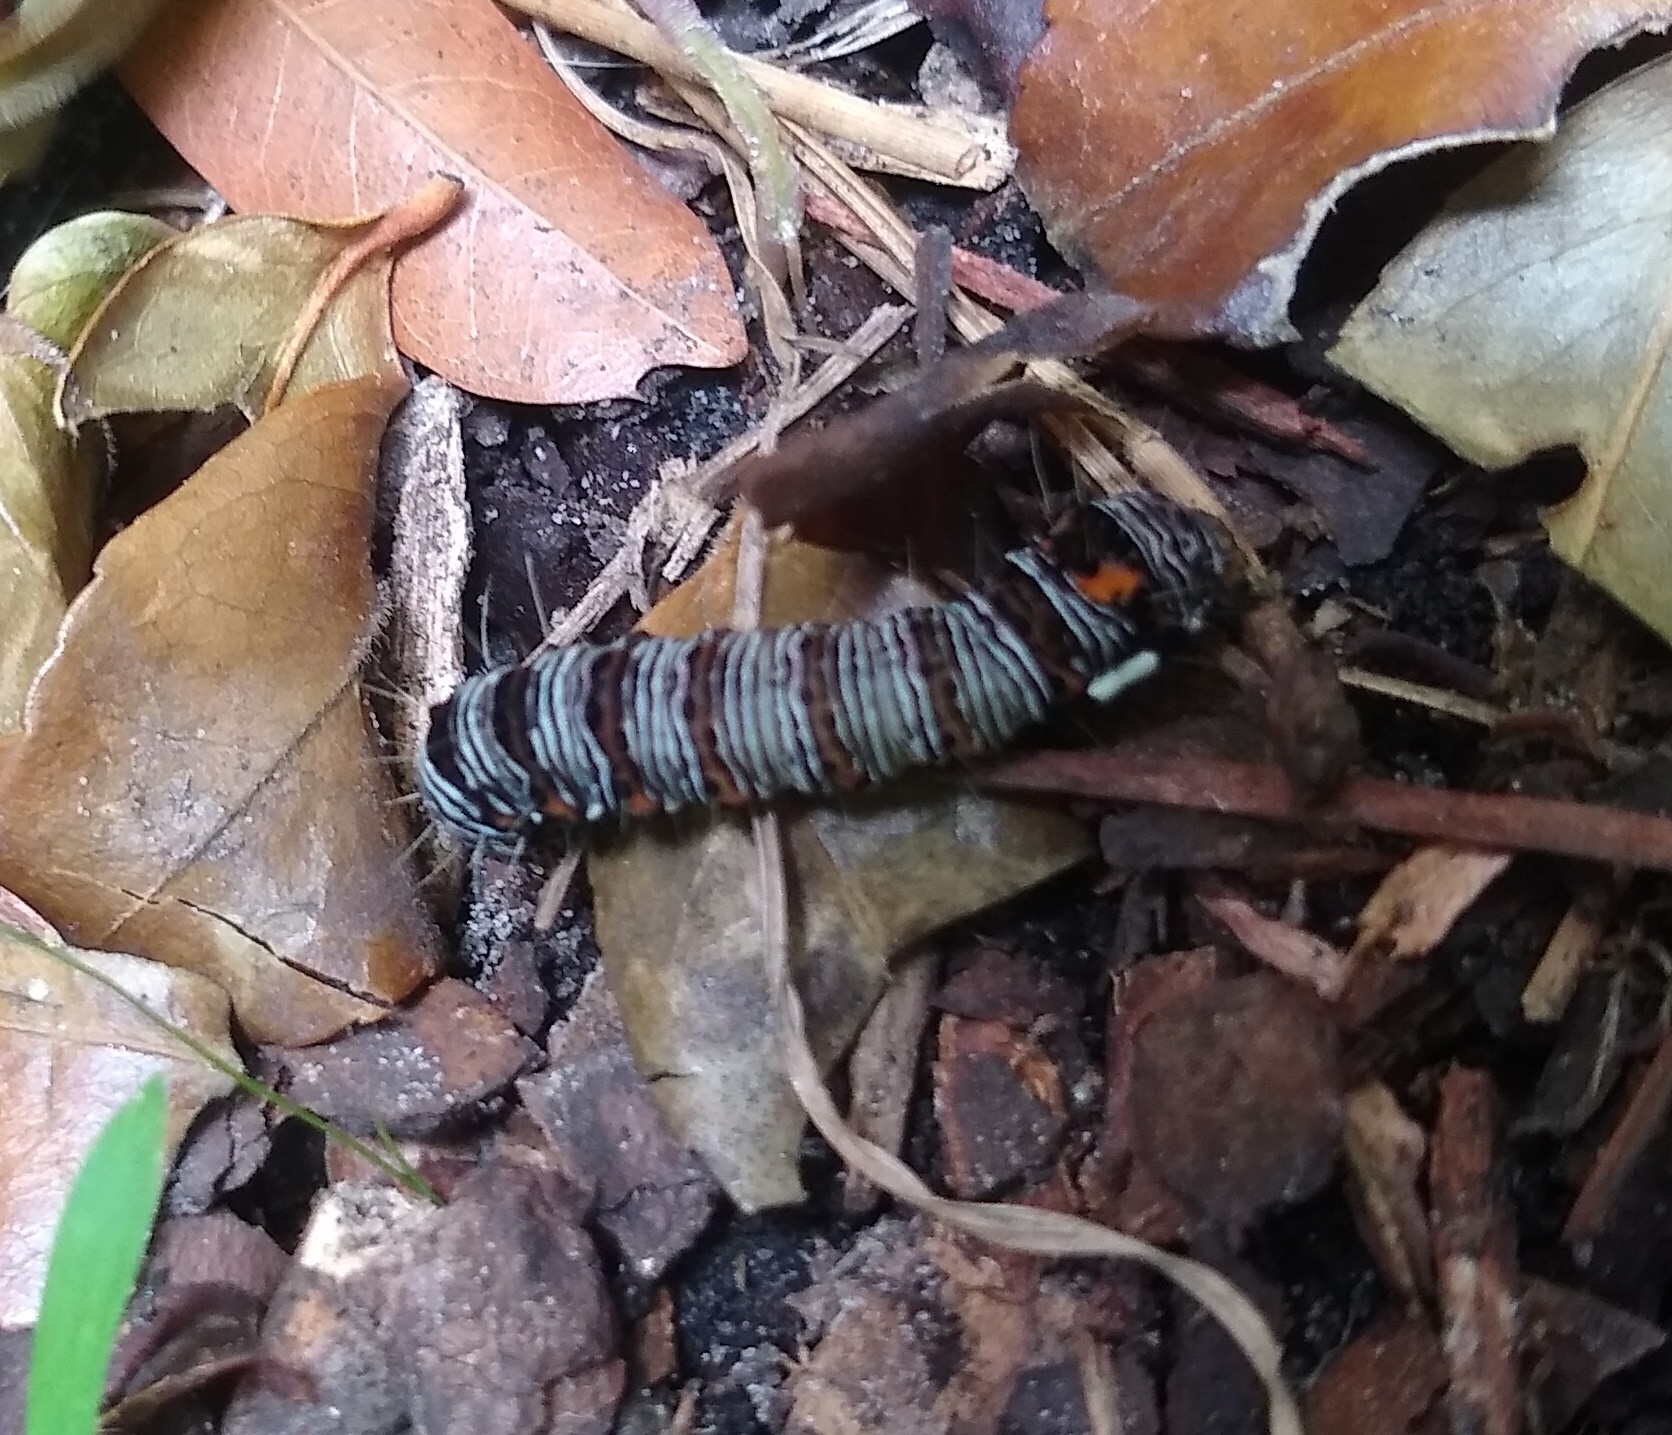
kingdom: Animalia
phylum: Arthropoda
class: Insecta
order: Lepidoptera
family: Noctuidae
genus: Alypia
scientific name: Alypia octomaculata
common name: Eight-spotted forester
